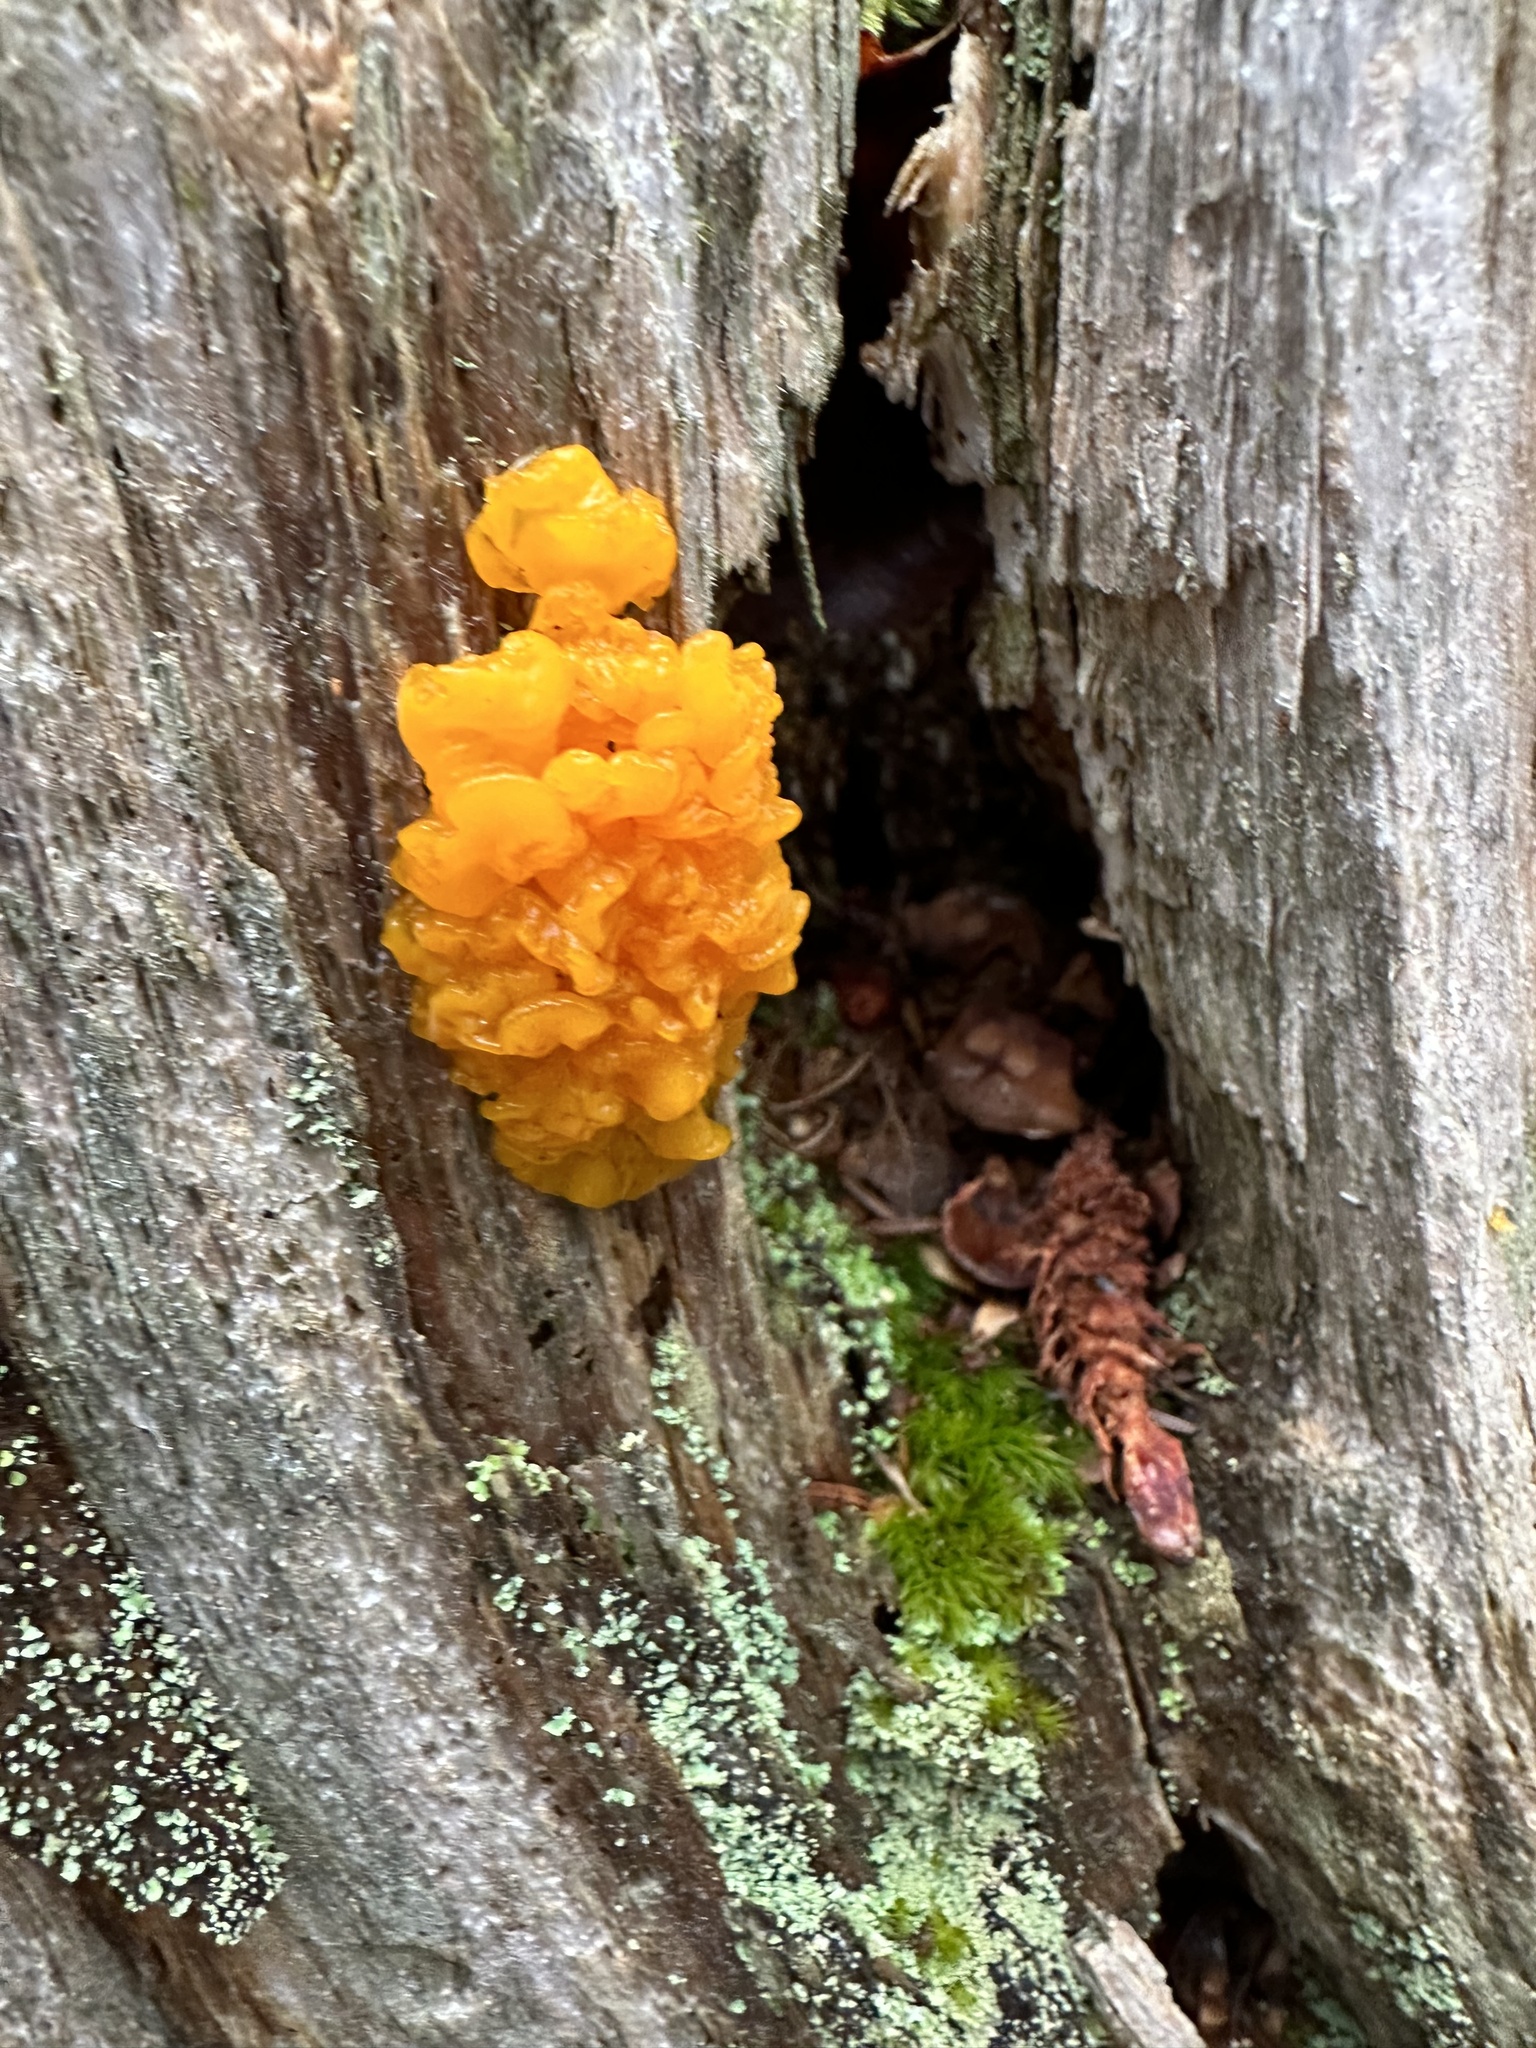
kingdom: Fungi
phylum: Basidiomycota
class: Dacrymycetes
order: Dacrymycetales
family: Dacrymycetaceae
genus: Dacrymyces
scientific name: Dacrymyces chrysospermus
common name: Orange jelly spot
